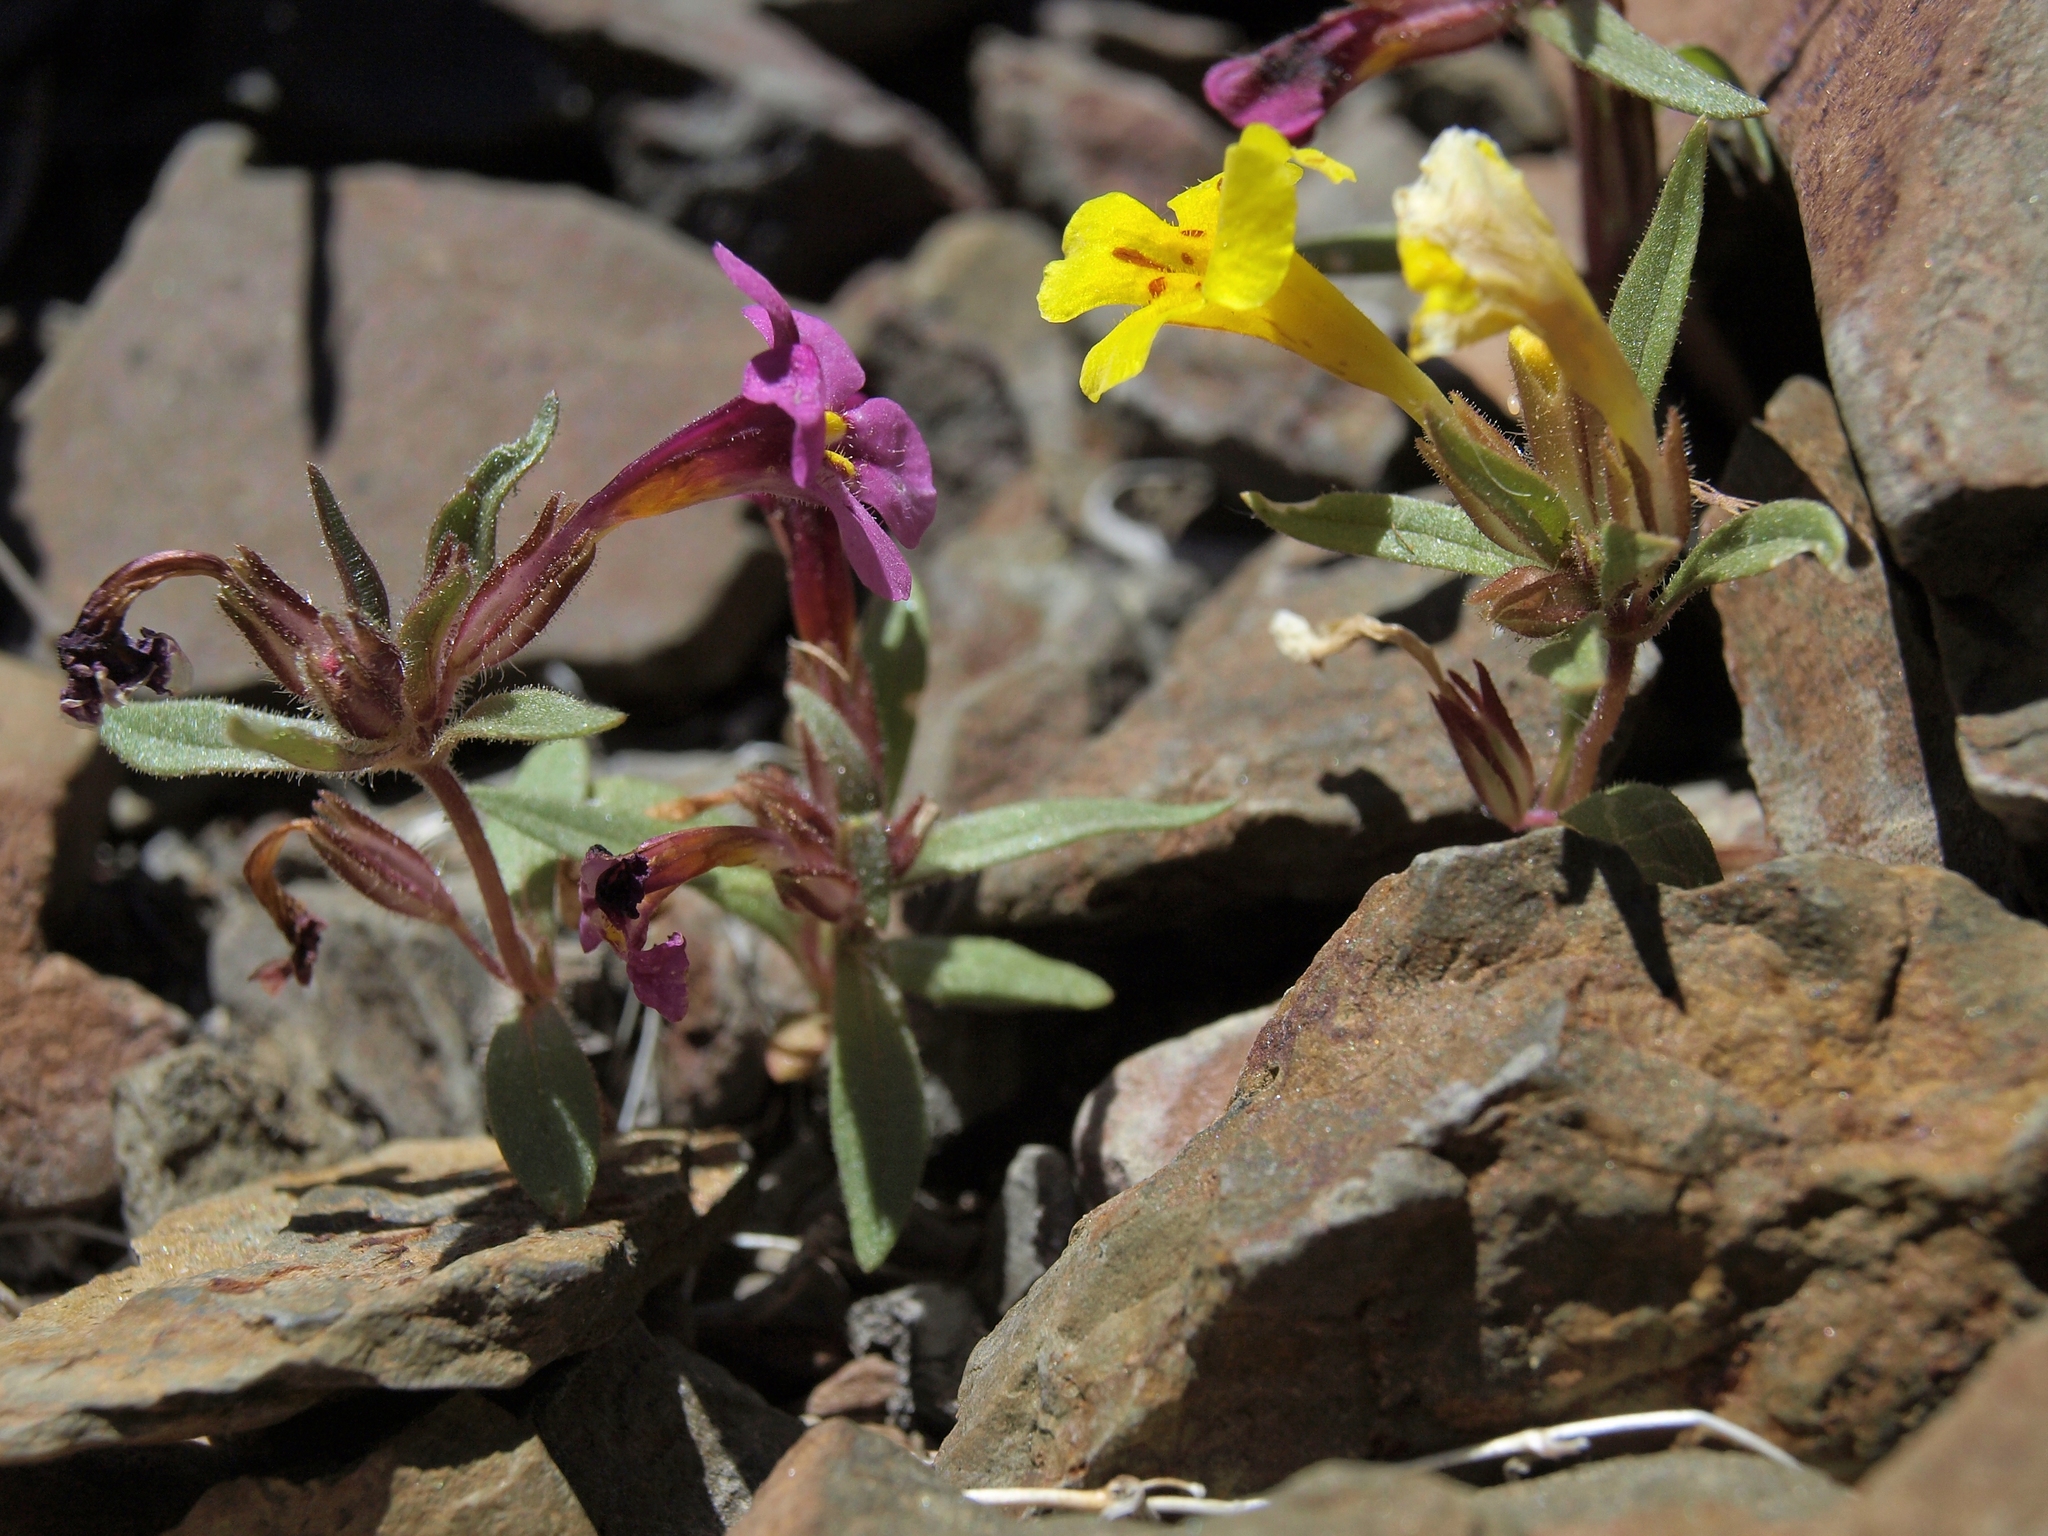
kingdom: Plantae
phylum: Tracheophyta
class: Magnoliopsida
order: Lamiales
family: Phrymaceae
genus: Diplacus
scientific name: Diplacus mephiticus
